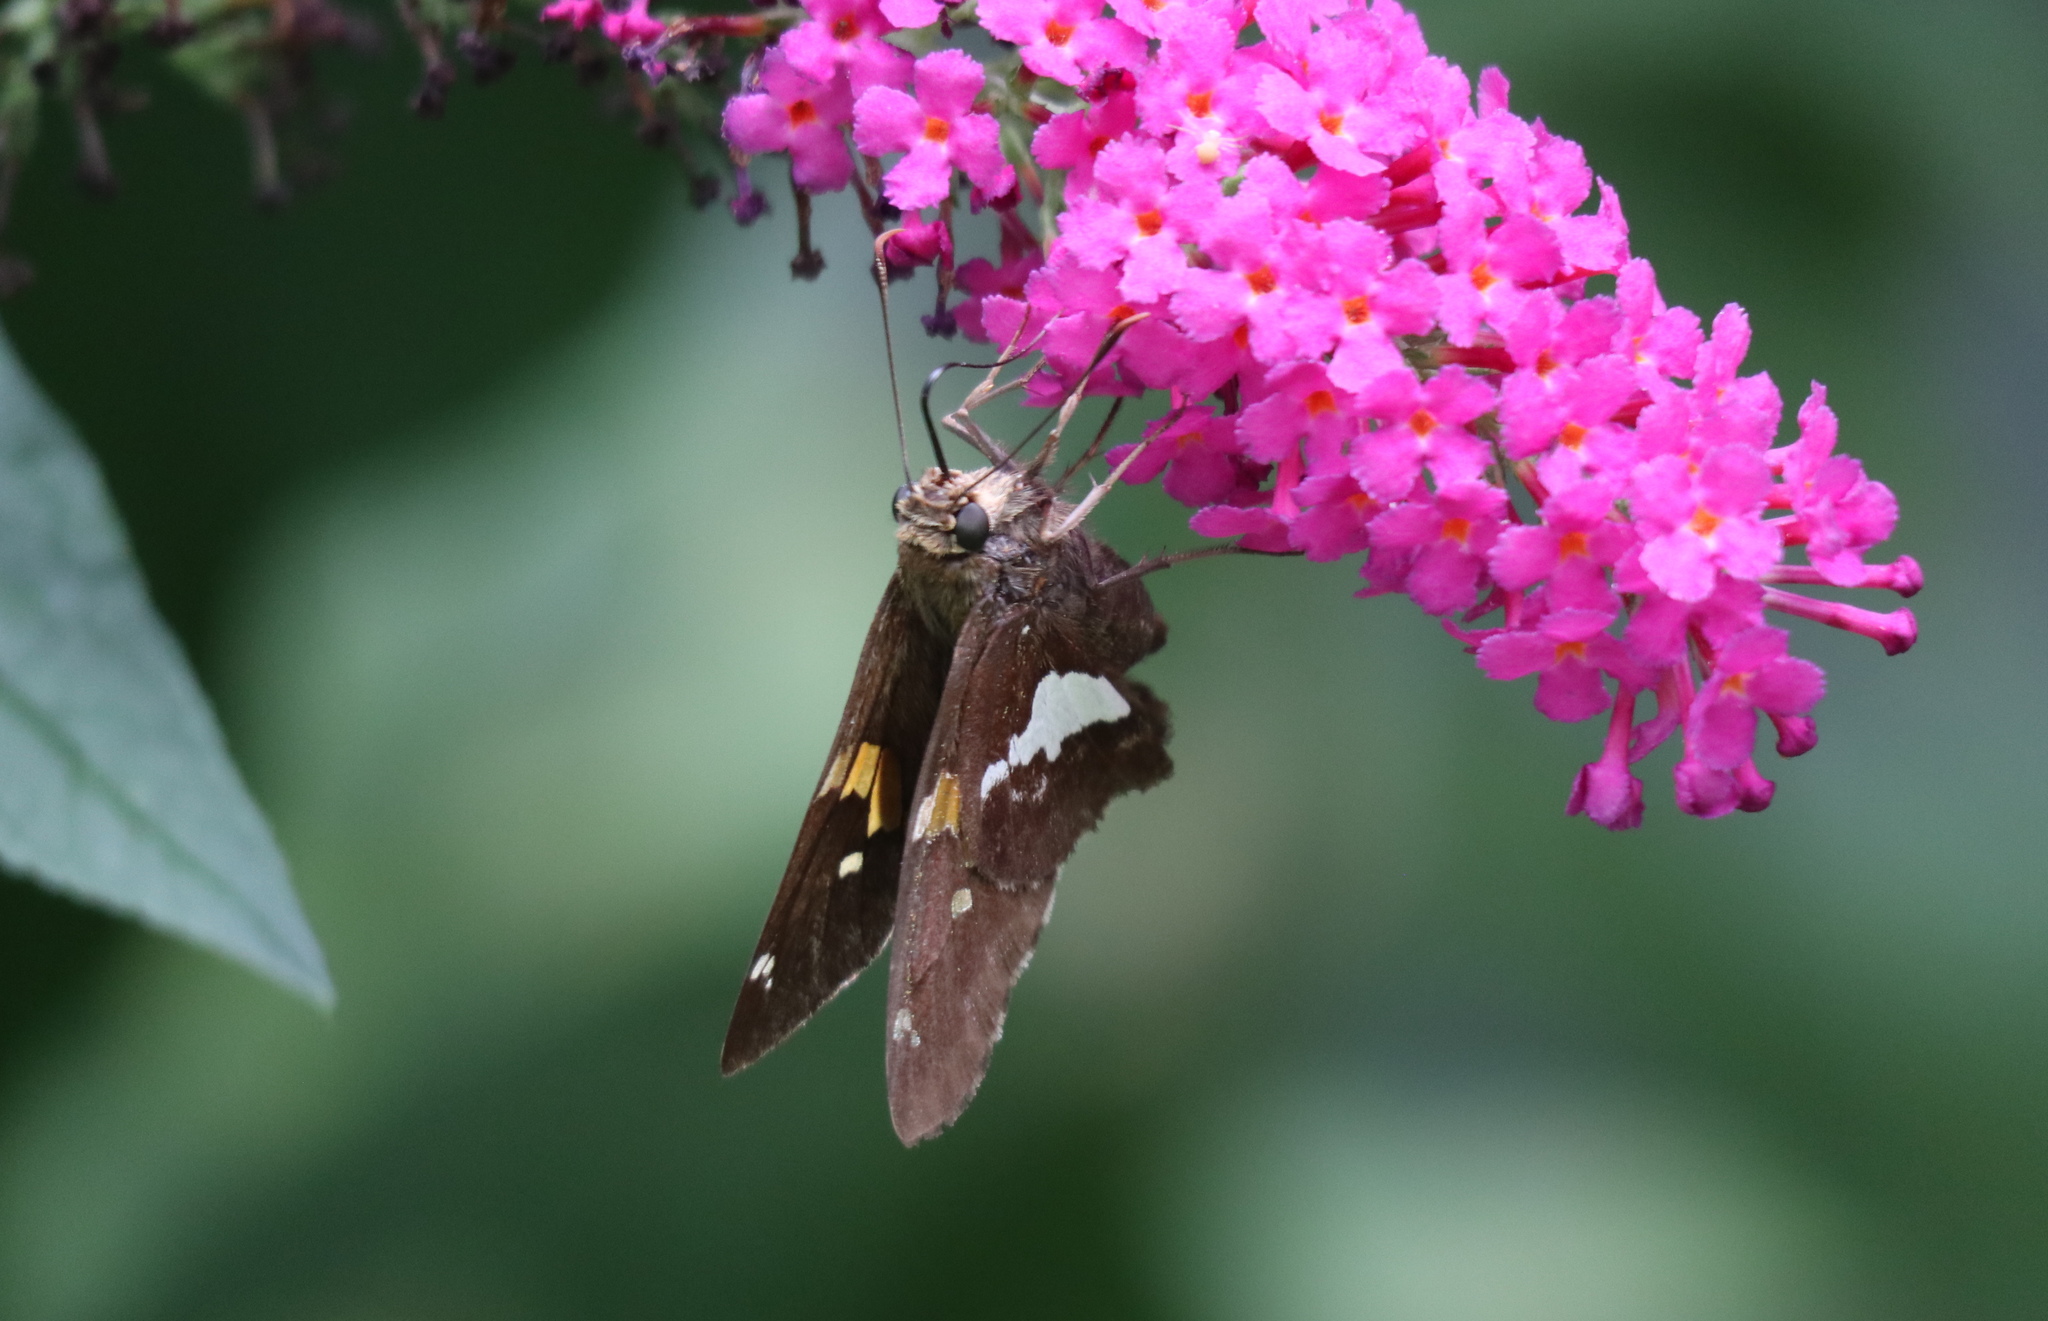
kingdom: Animalia
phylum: Arthropoda
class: Insecta
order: Lepidoptera
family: Hesperiidae
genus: Epargyreus
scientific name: Epargyreus clarus
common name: Silver-spotted skipper
